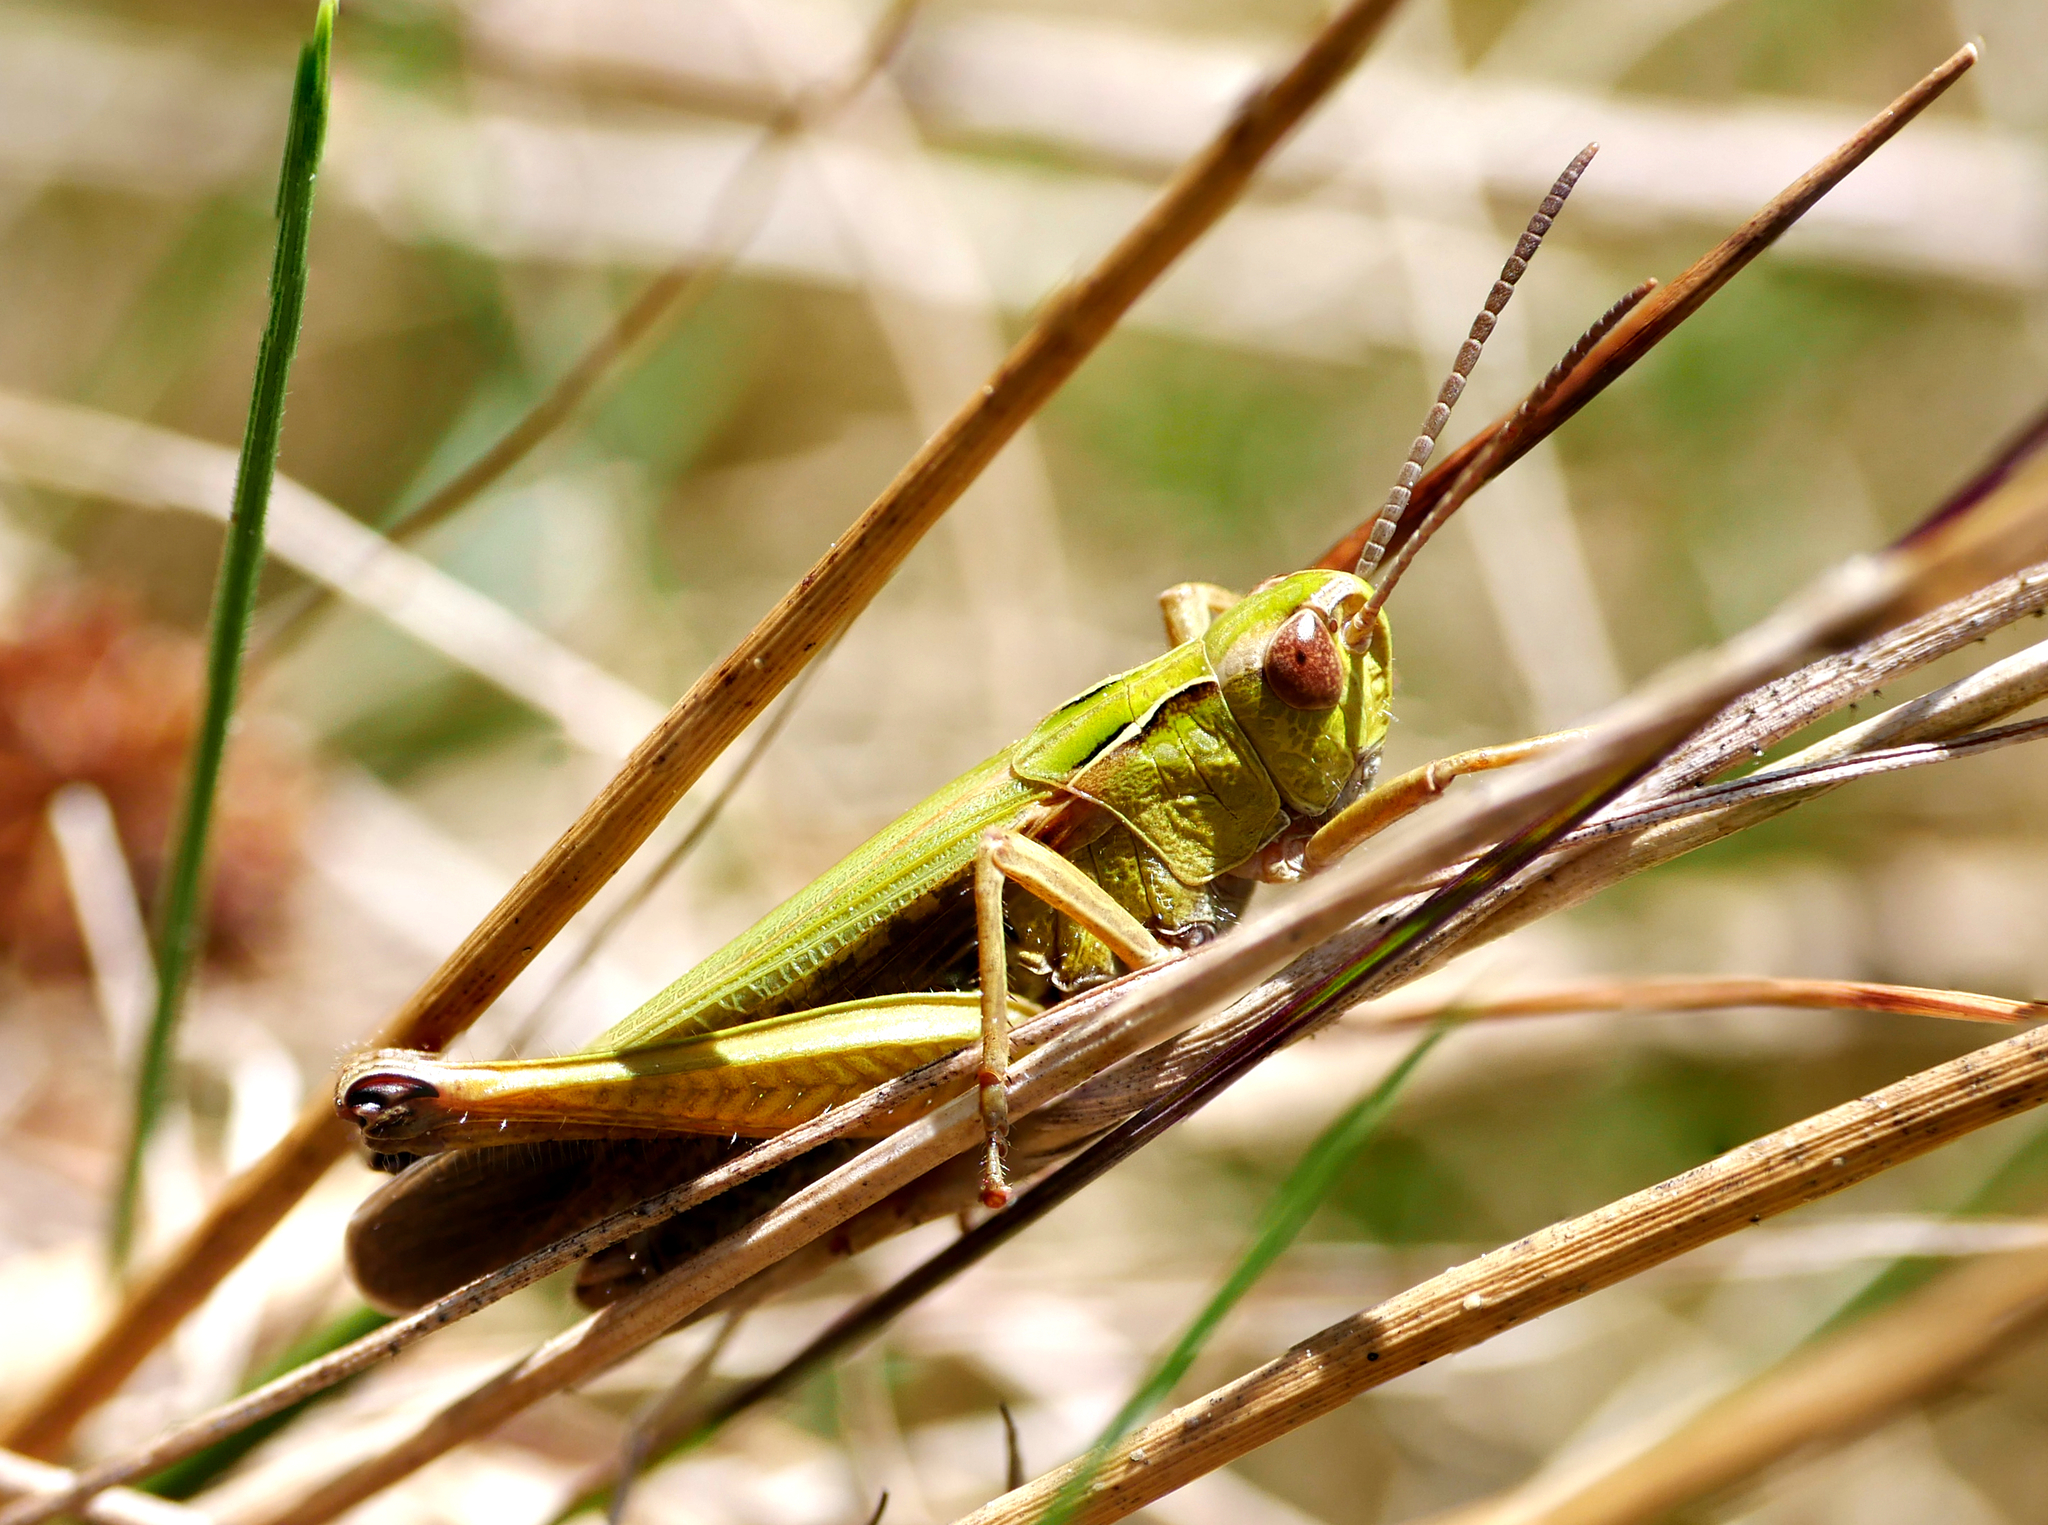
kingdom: Animalia
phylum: Arthropoda
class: Insecta
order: Orthoptera
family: Acrididae
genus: Omocestus
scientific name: Omocestus viridulus
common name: Common green grasshopper
